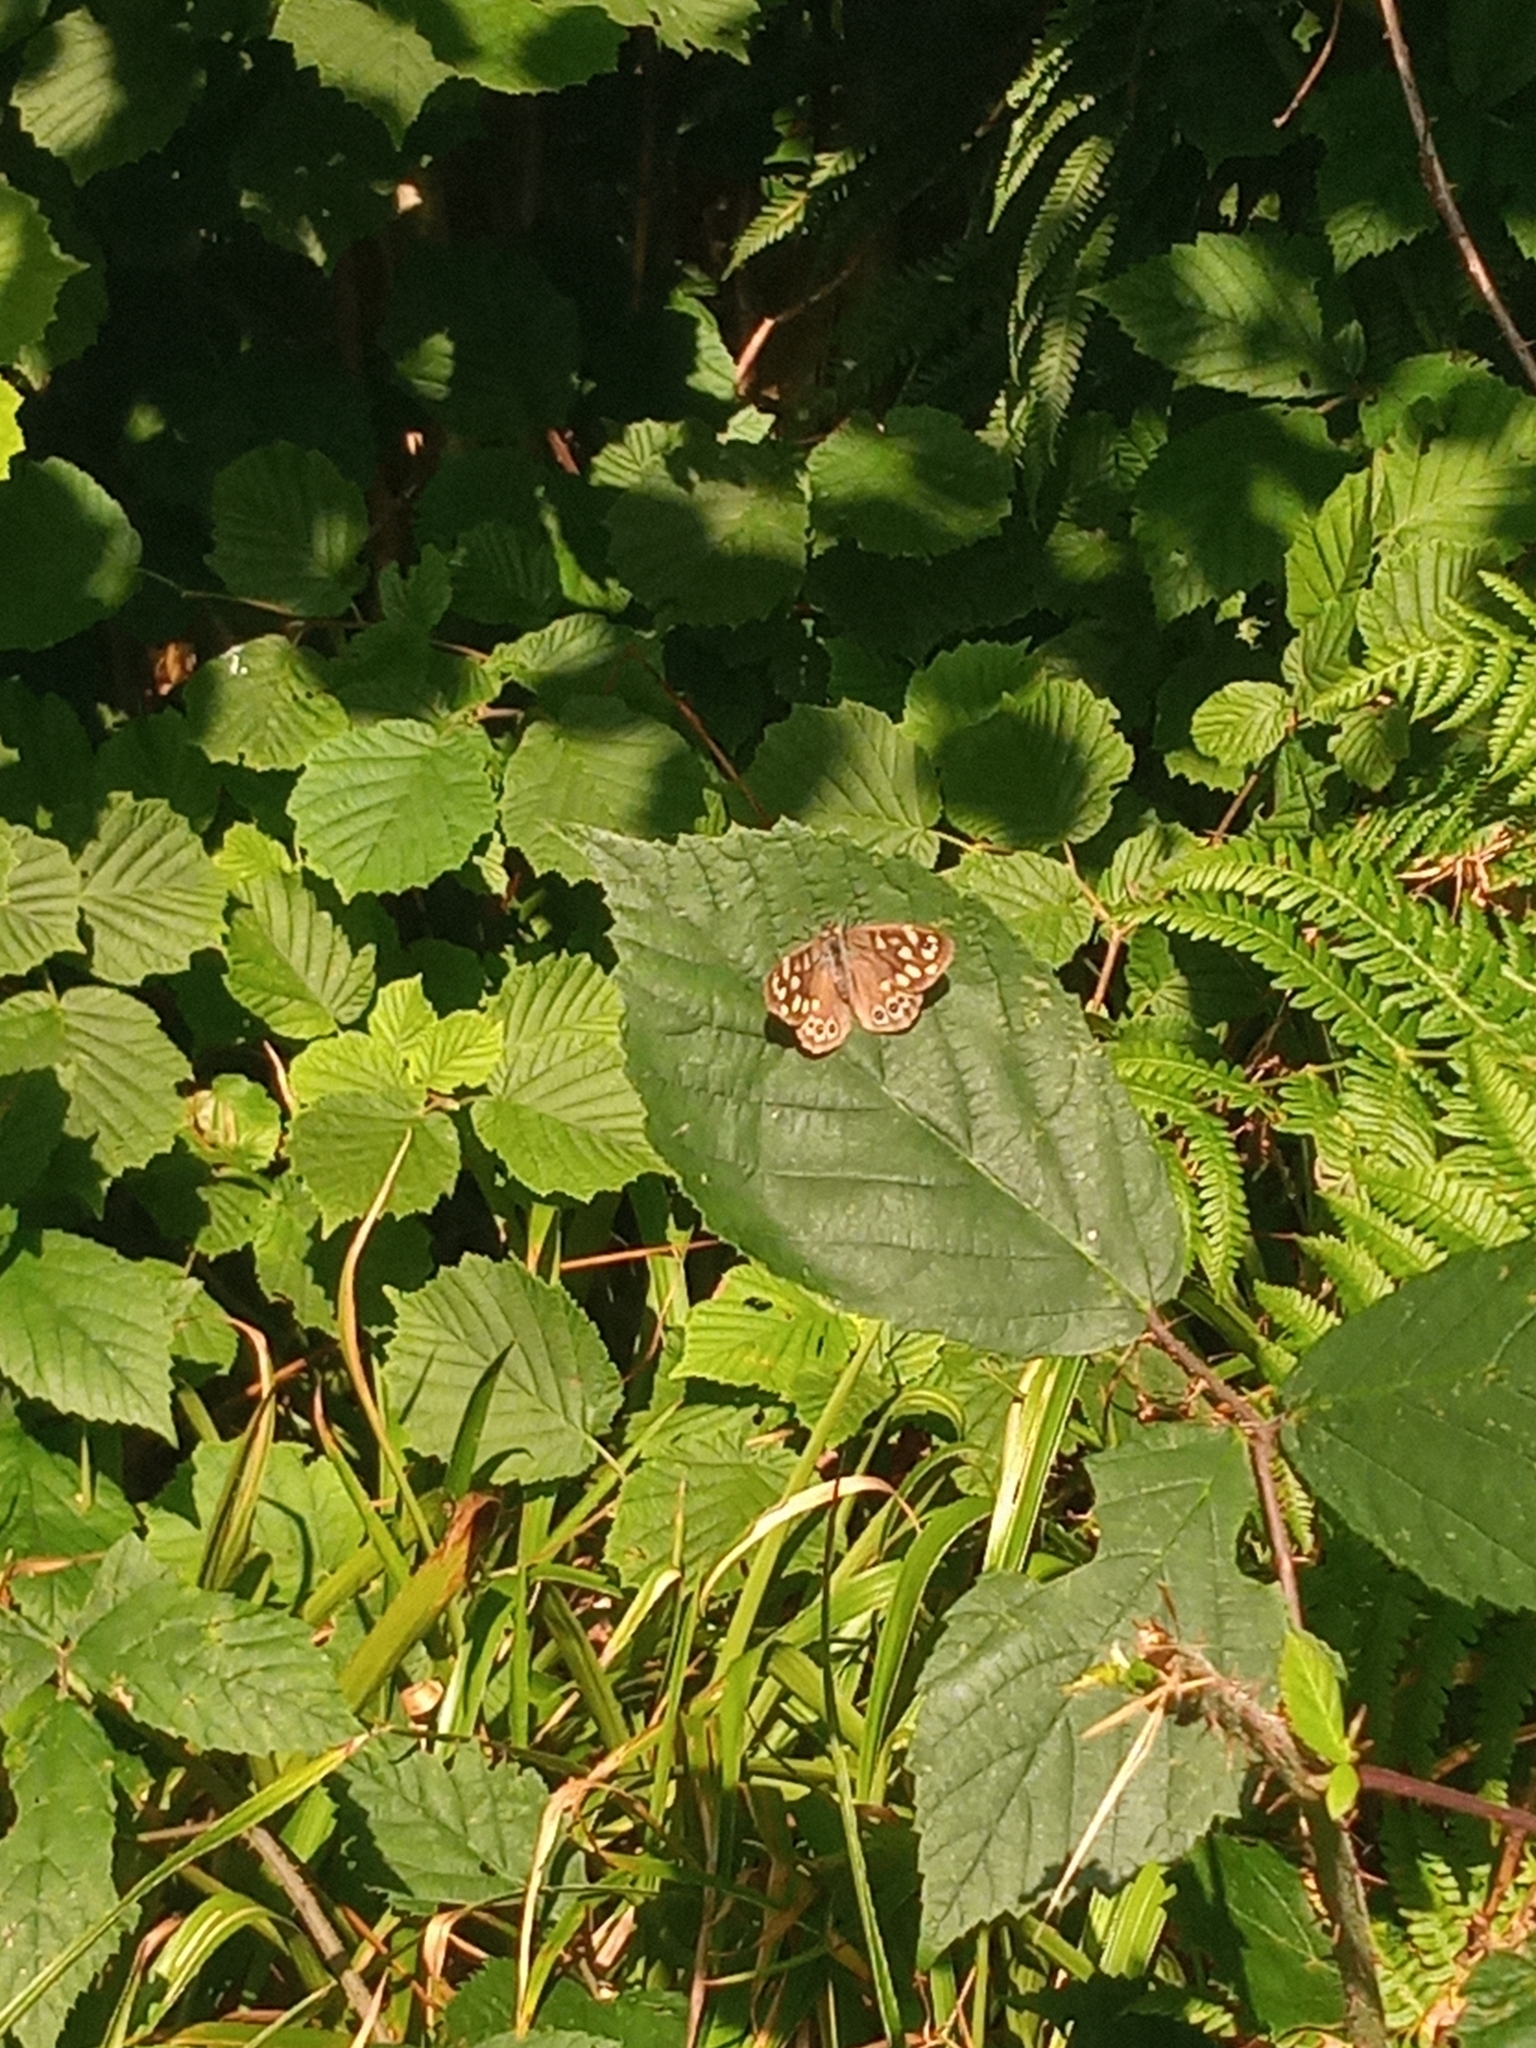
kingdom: Animalia
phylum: Arthropoda
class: Insecta
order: Lepidoptera
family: Nymphalidae
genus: Pararge
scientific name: Pararge aegeria
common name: Speckled wood
